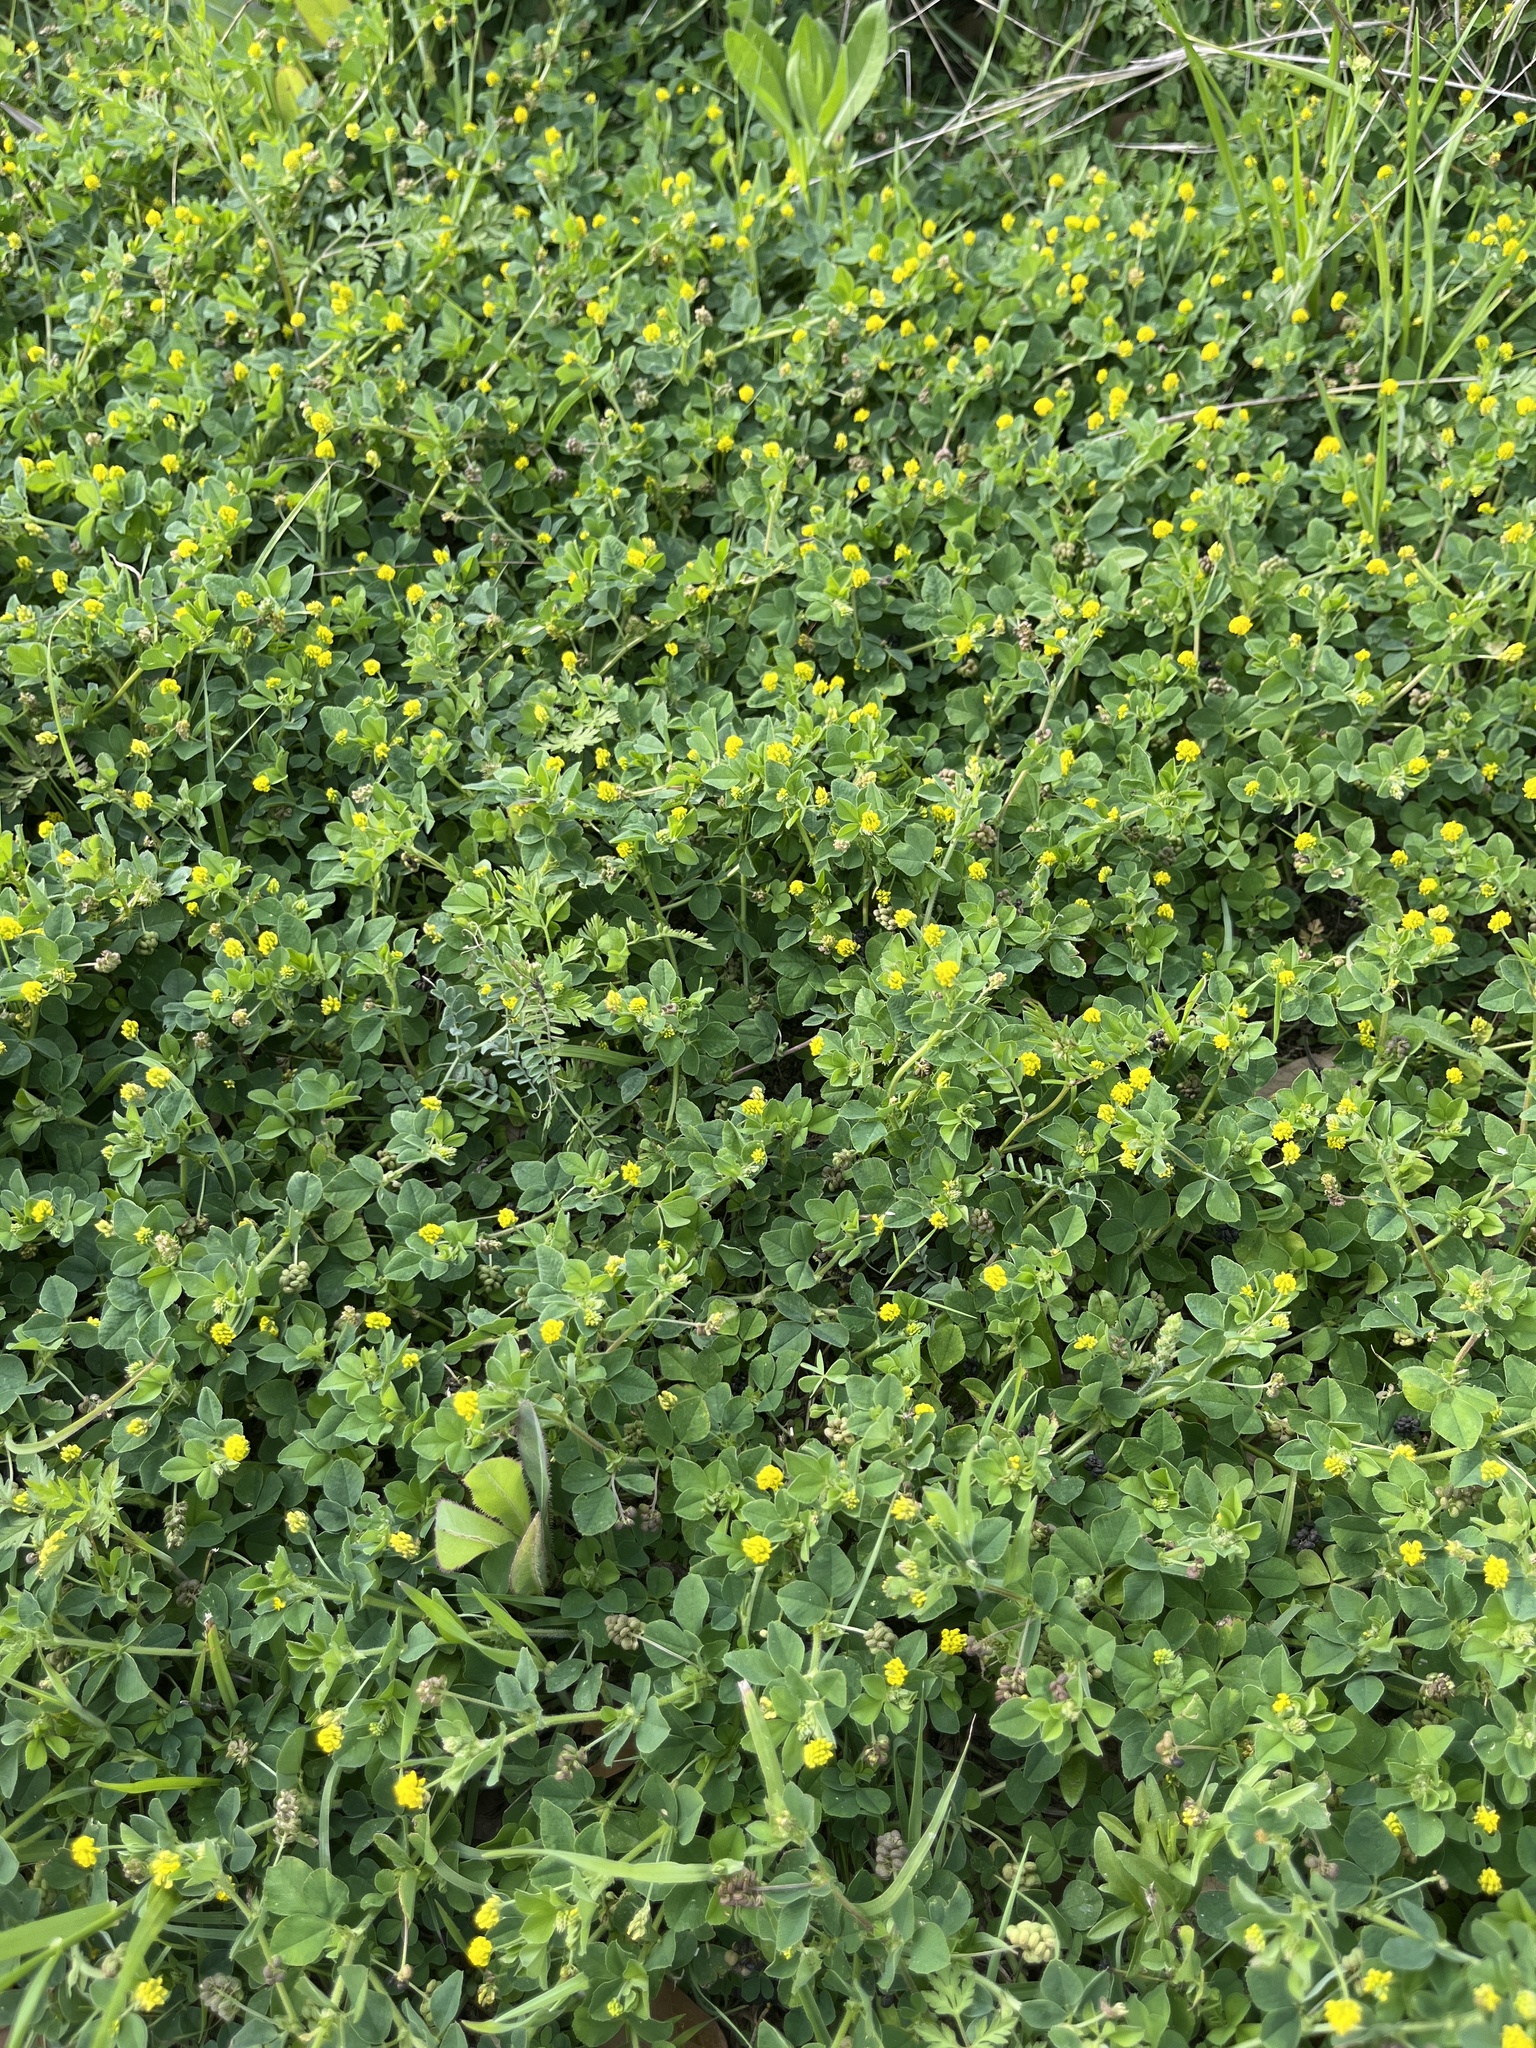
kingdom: Plantae
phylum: Tracheophyta
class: Magnoliopsida
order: Fabales
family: Fabaceae
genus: Medicago
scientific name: Medicago lupulina
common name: Black medick
